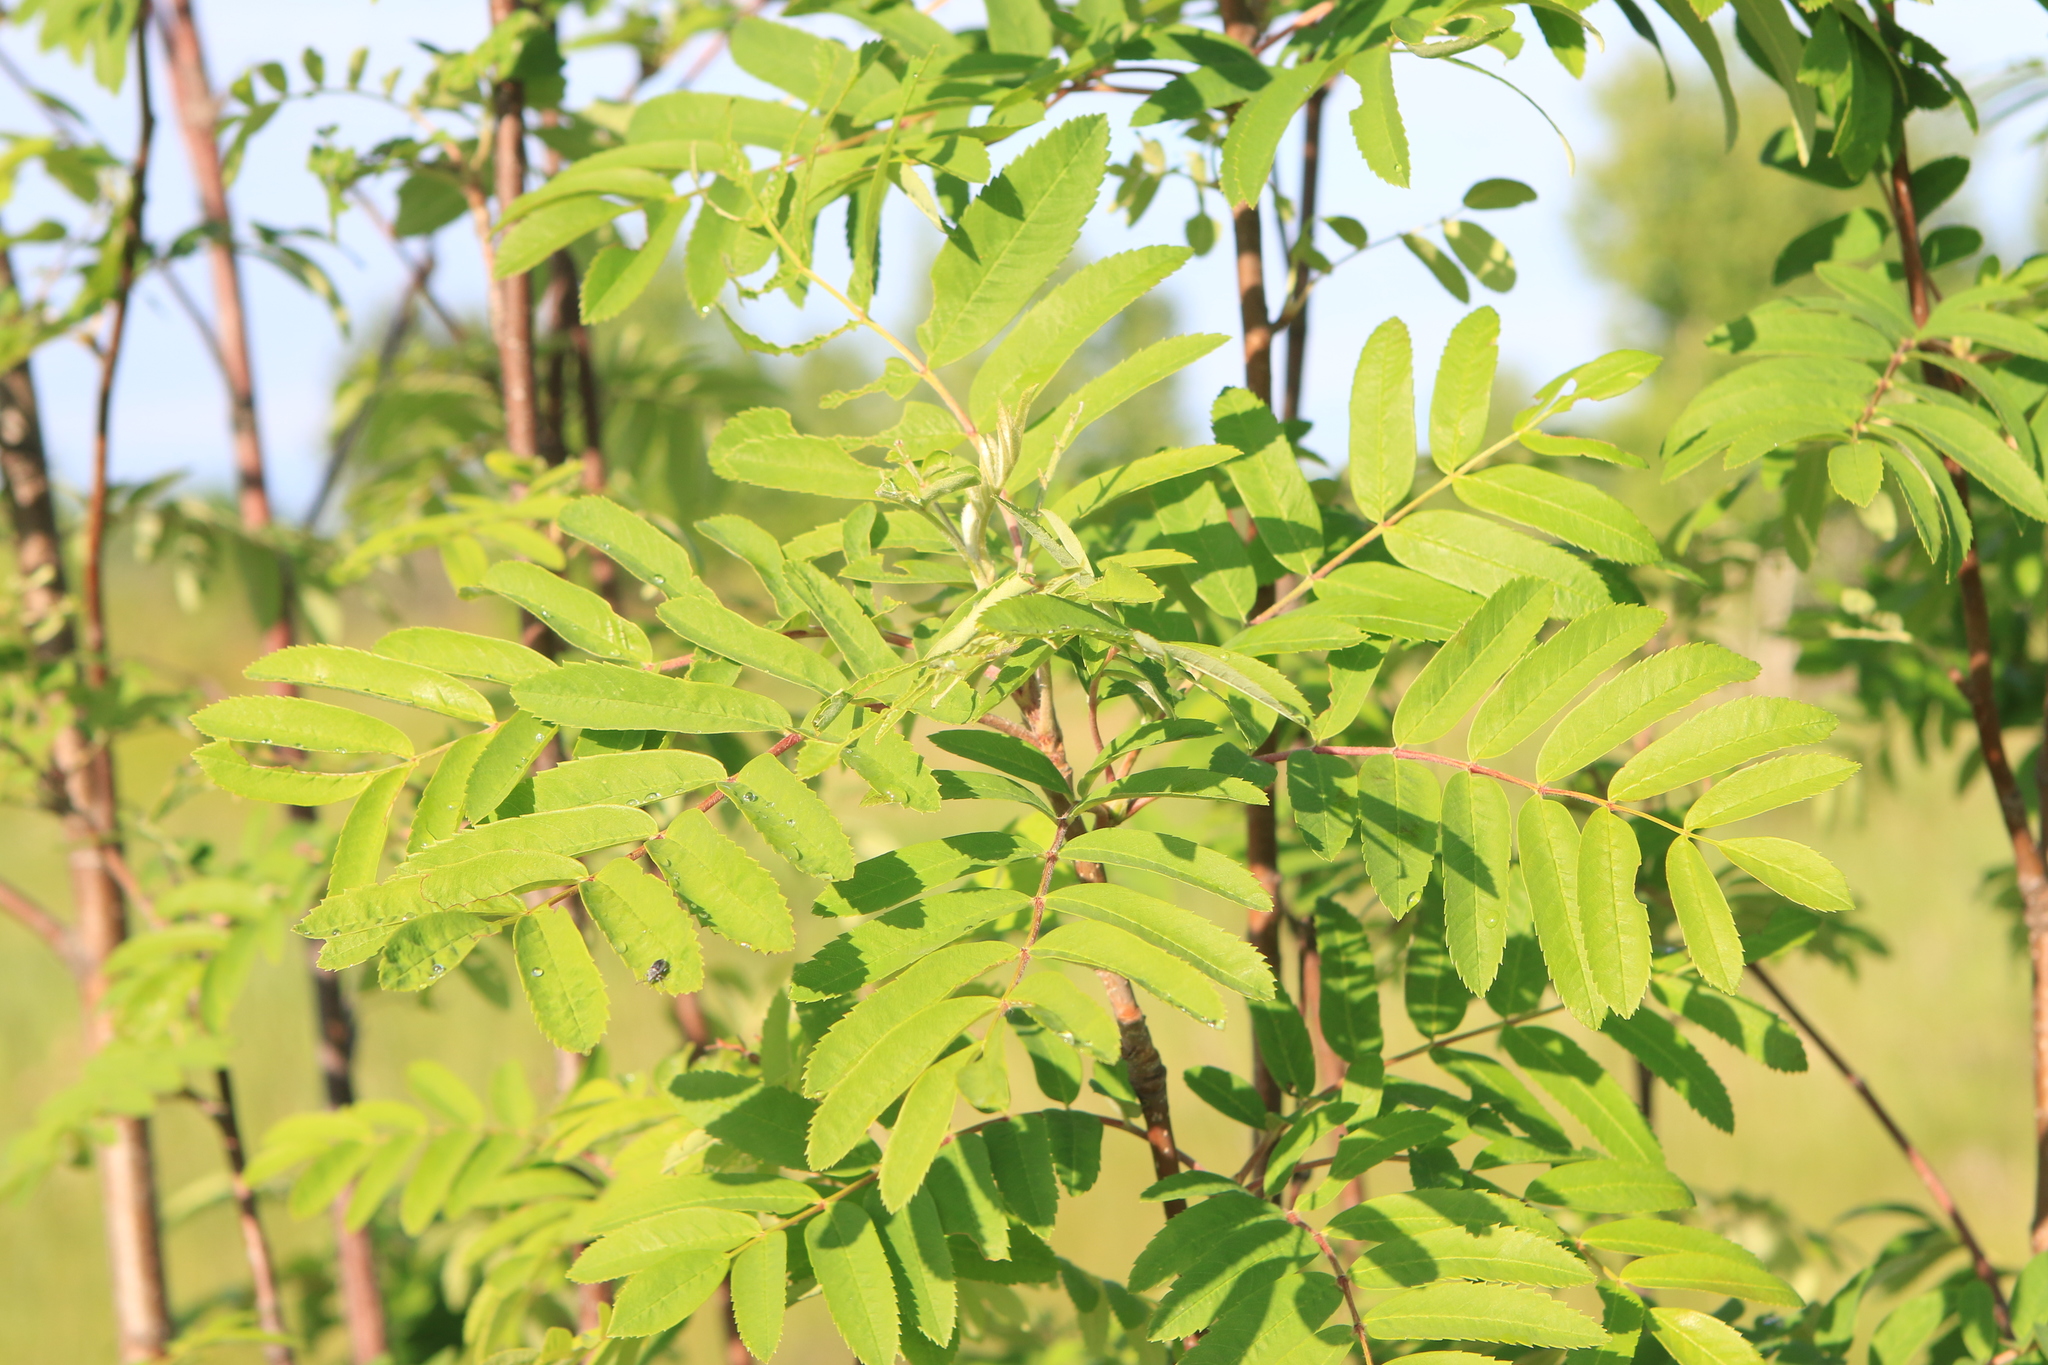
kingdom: Plantae
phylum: Tracheophyta
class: Magnoliopsida
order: Rosales
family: Rosaceae
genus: Sorbus
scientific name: Sorbus aucuparia
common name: Rowan
